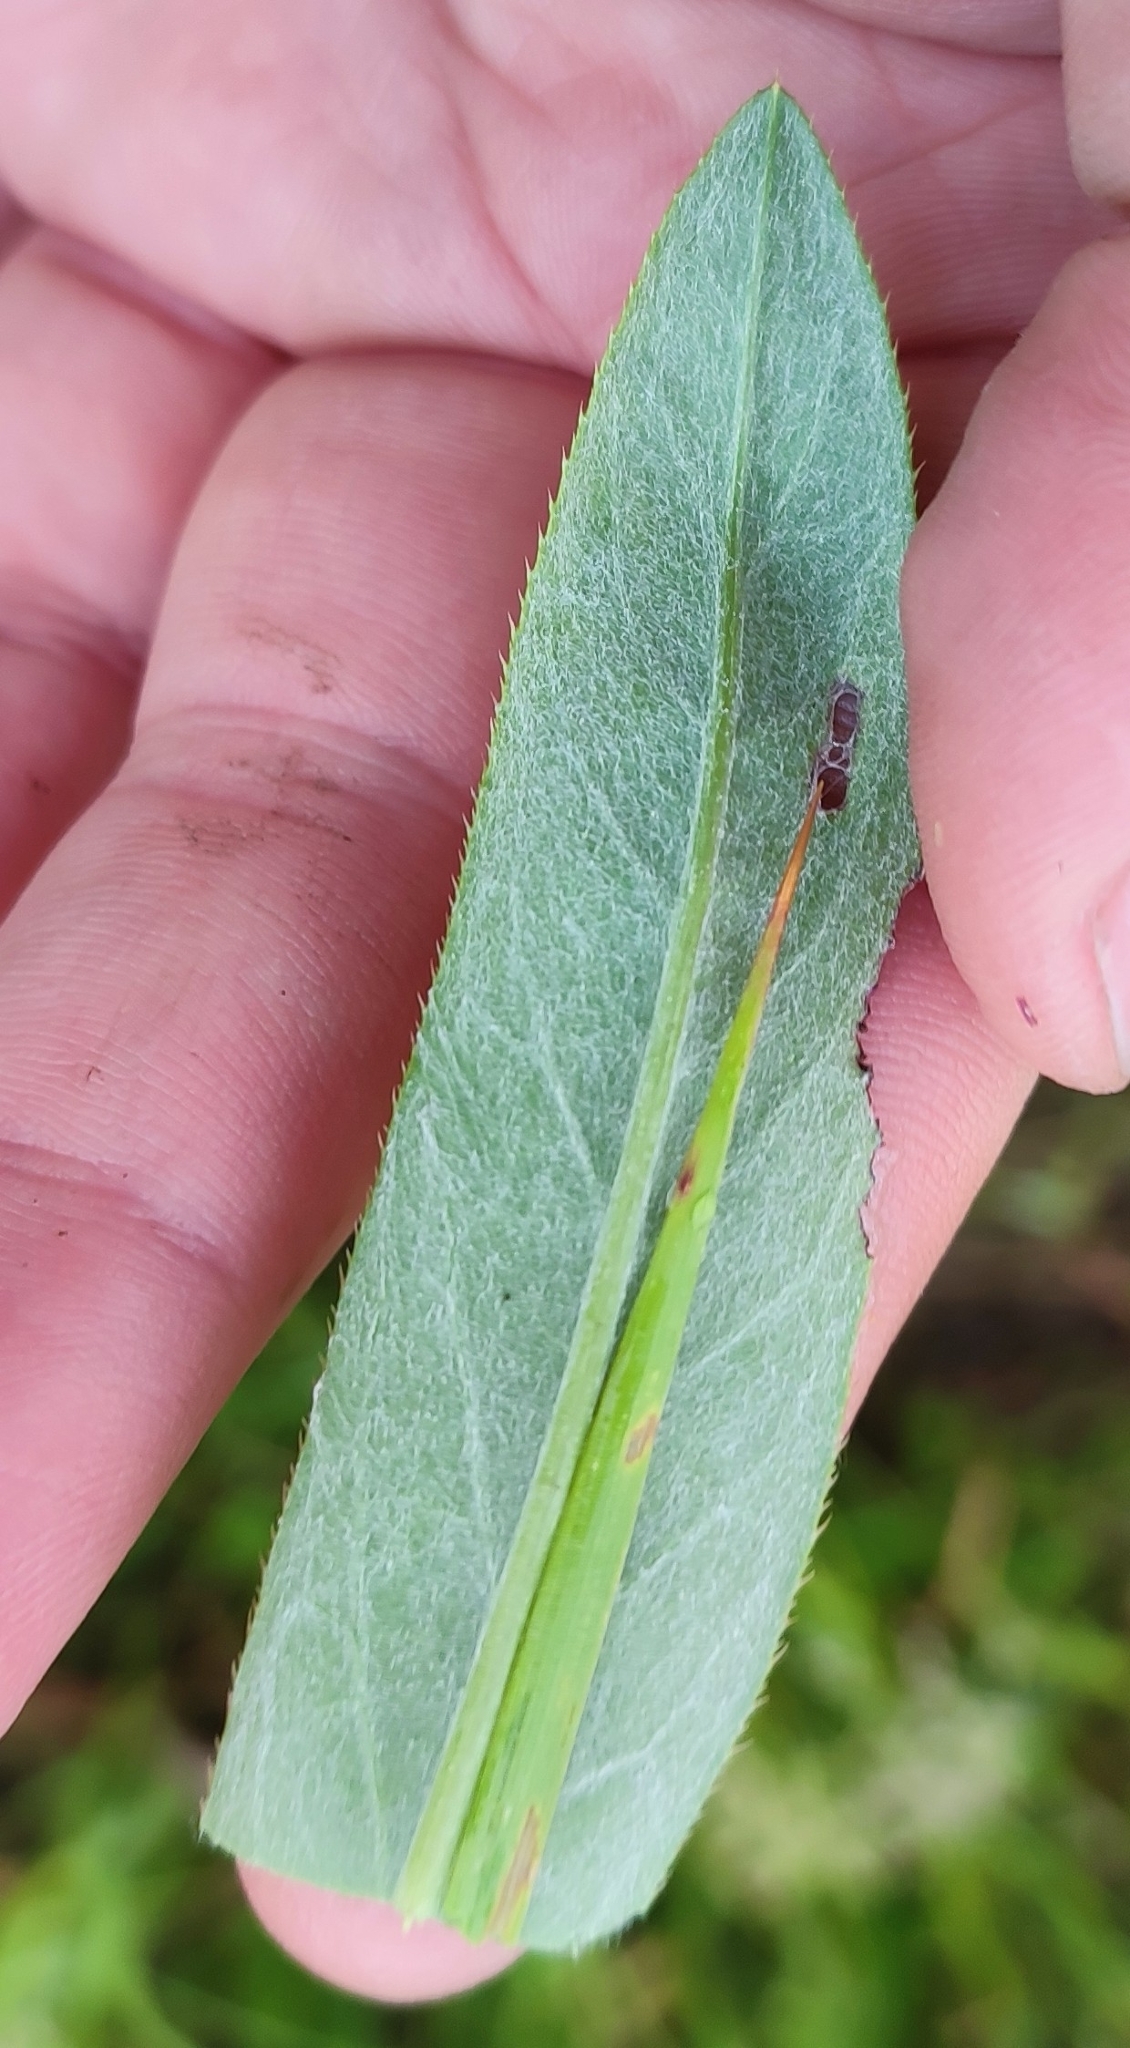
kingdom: Plantae
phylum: Tracheophyta
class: Magnoliopsida
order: Asterales
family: Asteraceae
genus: Cirsium
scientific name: Cirsium arvense
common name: Creeping thistle
